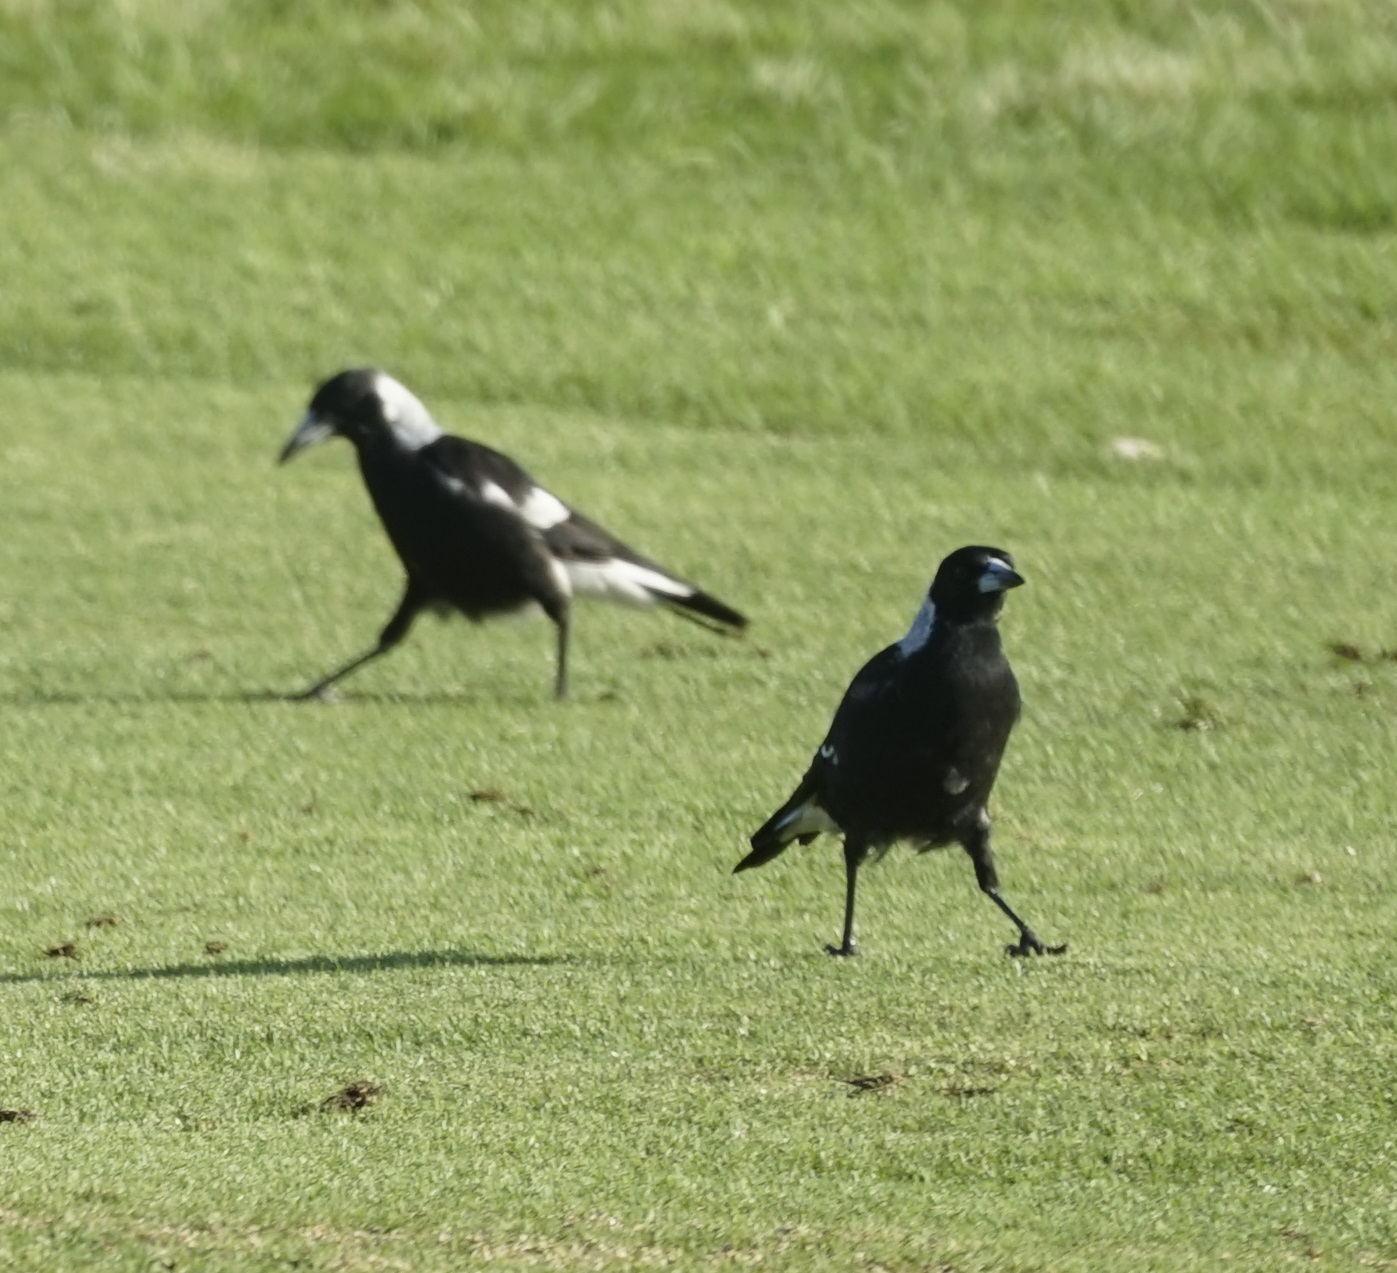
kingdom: Animalia
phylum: Chordata
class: Aves
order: Passeriformes
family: Cracticidae
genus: Gymnorhina
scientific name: Gymnorhina tibicen
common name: Australian magpie
